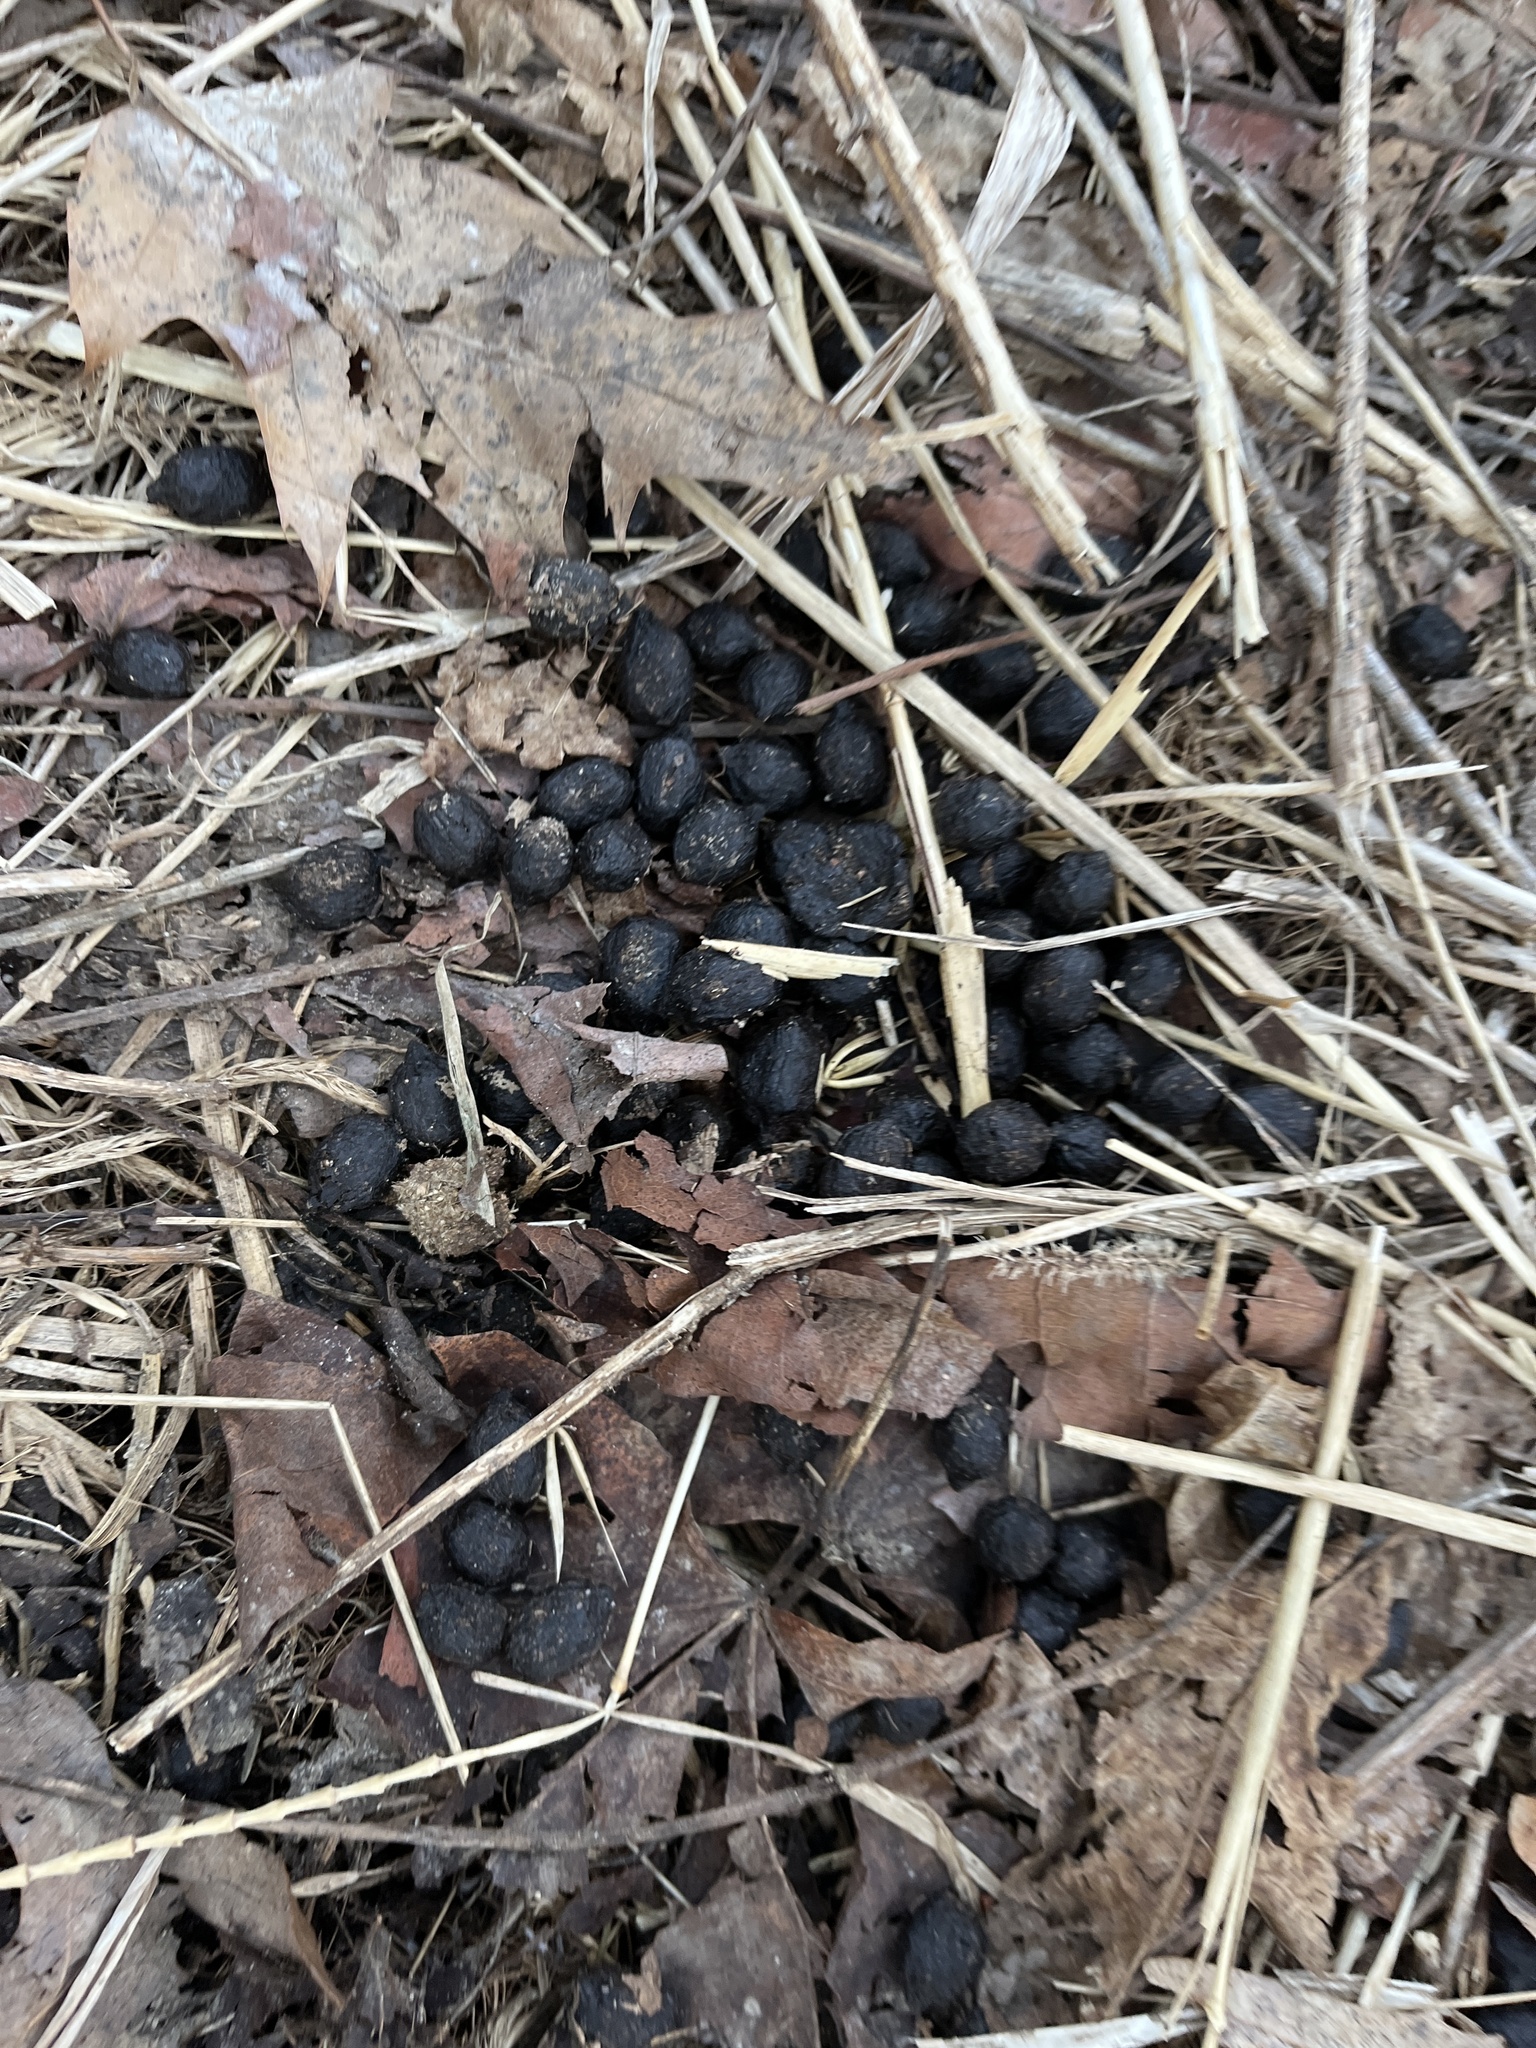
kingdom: Animalia
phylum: Chordata
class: Mammalia
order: Artiodactyla
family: Cervidae
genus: Odocoileus
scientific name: Odocoileus virginianus
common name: White-tailed deer
